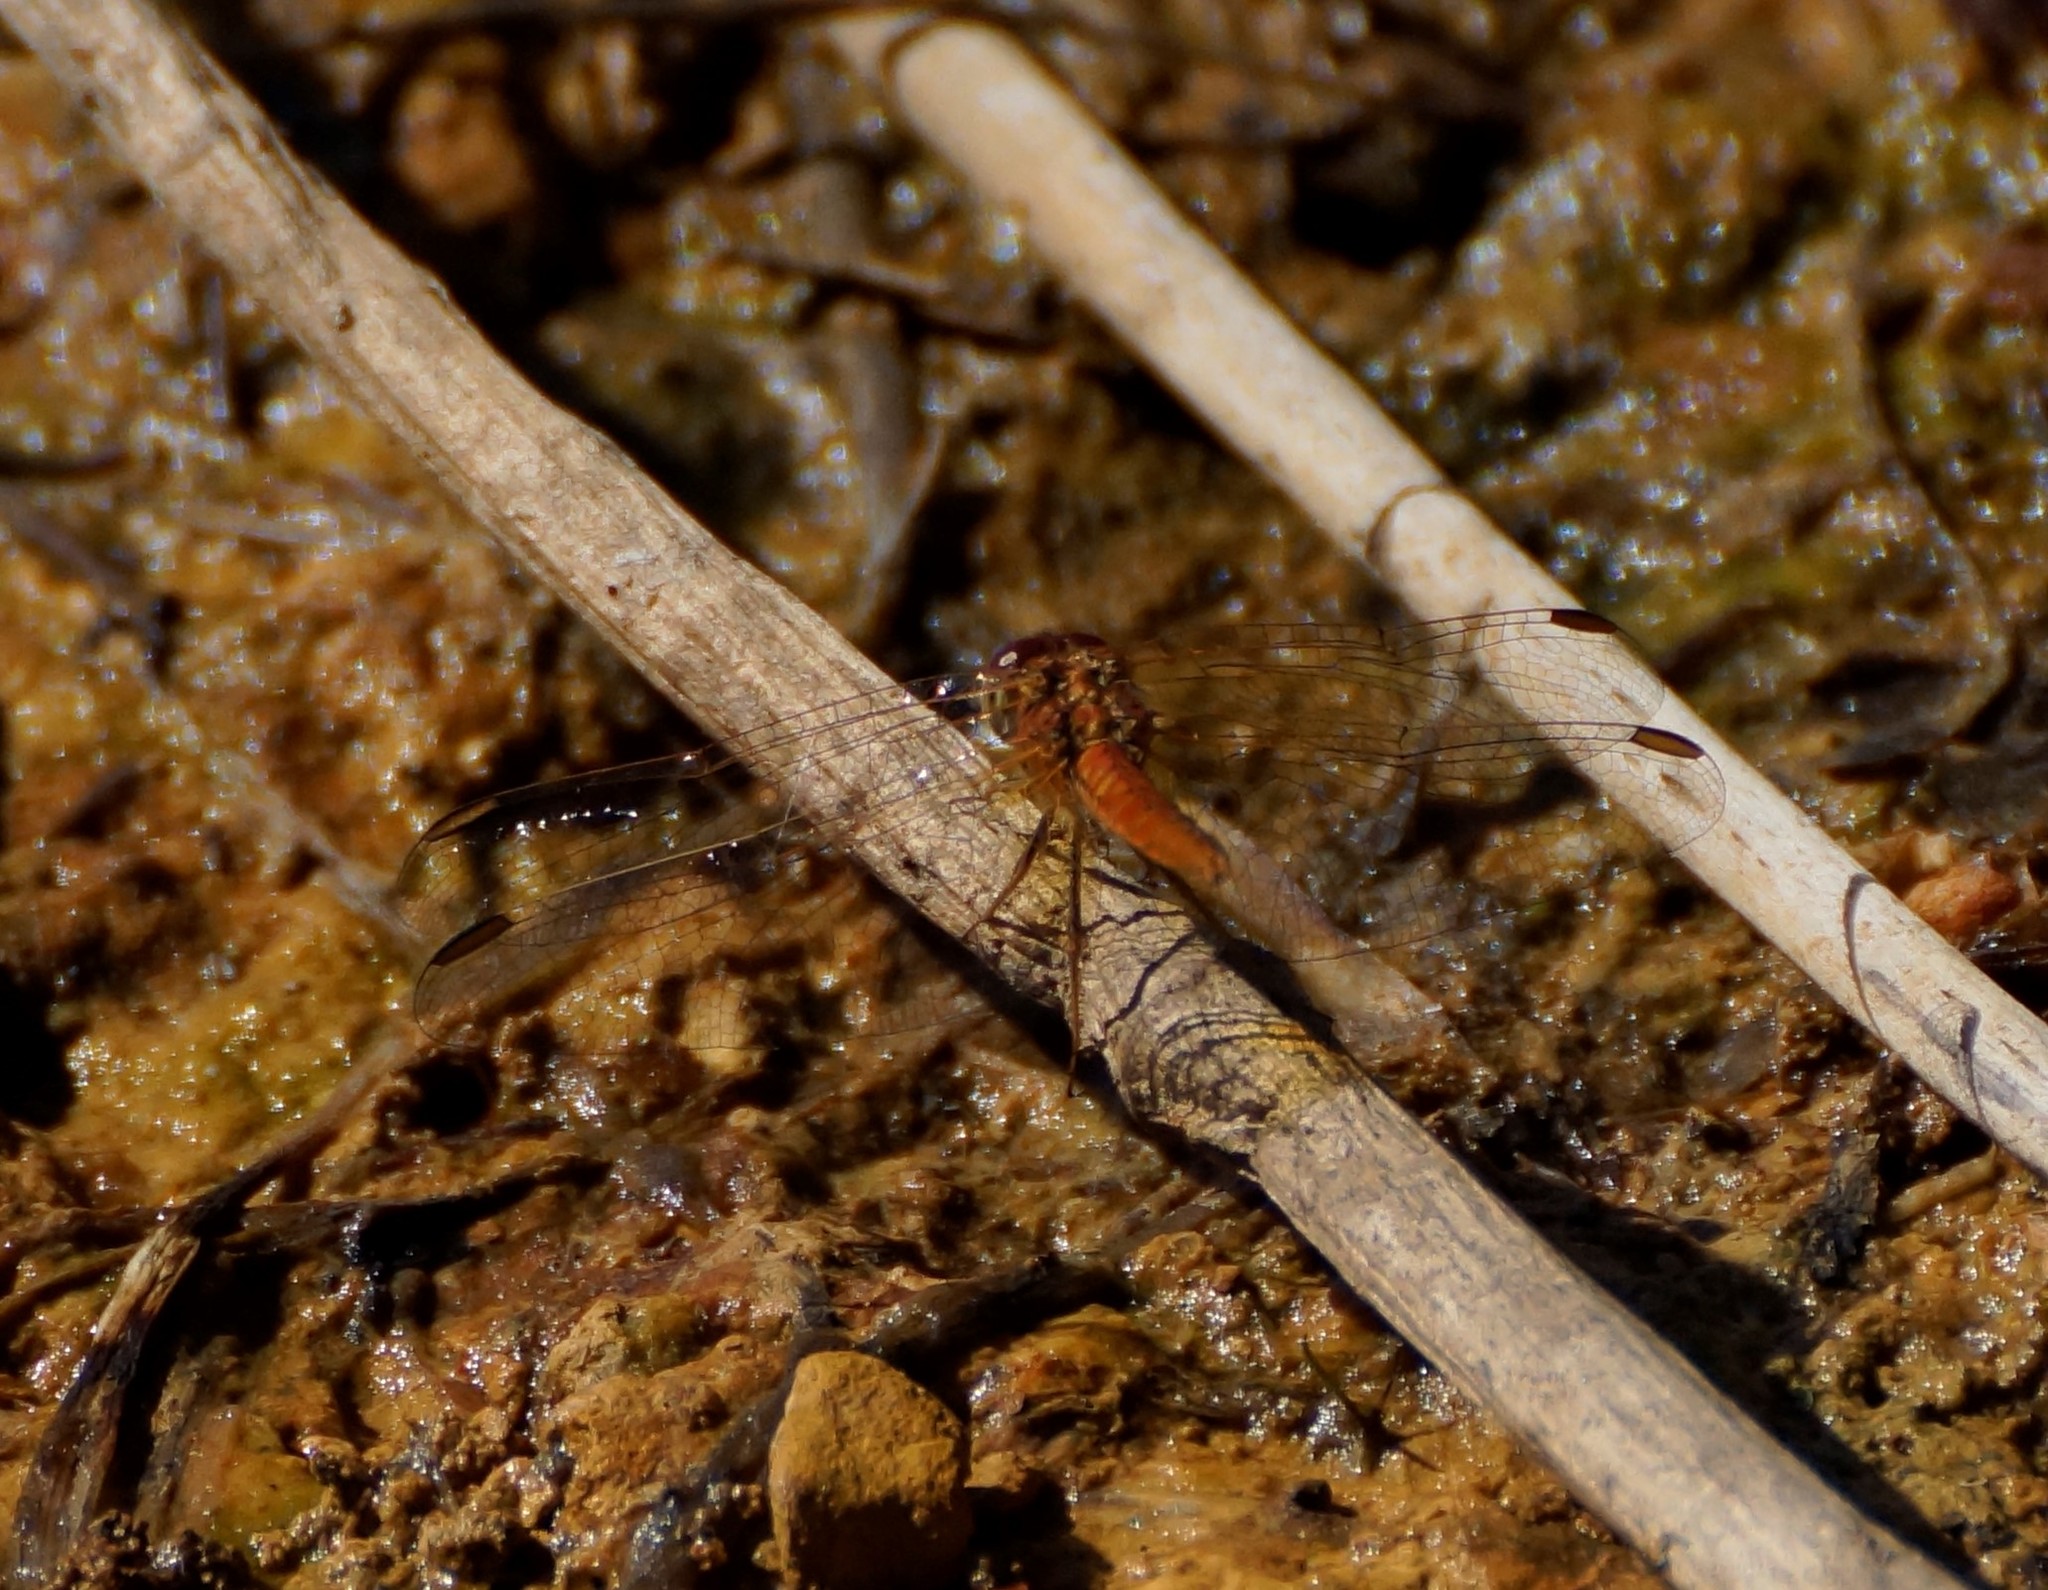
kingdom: Animalia
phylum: Arthropoda
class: Insecta
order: Odonata
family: Libellulidae
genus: Diplacodes
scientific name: Diplacodes haematodes
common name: Scarlet percher
